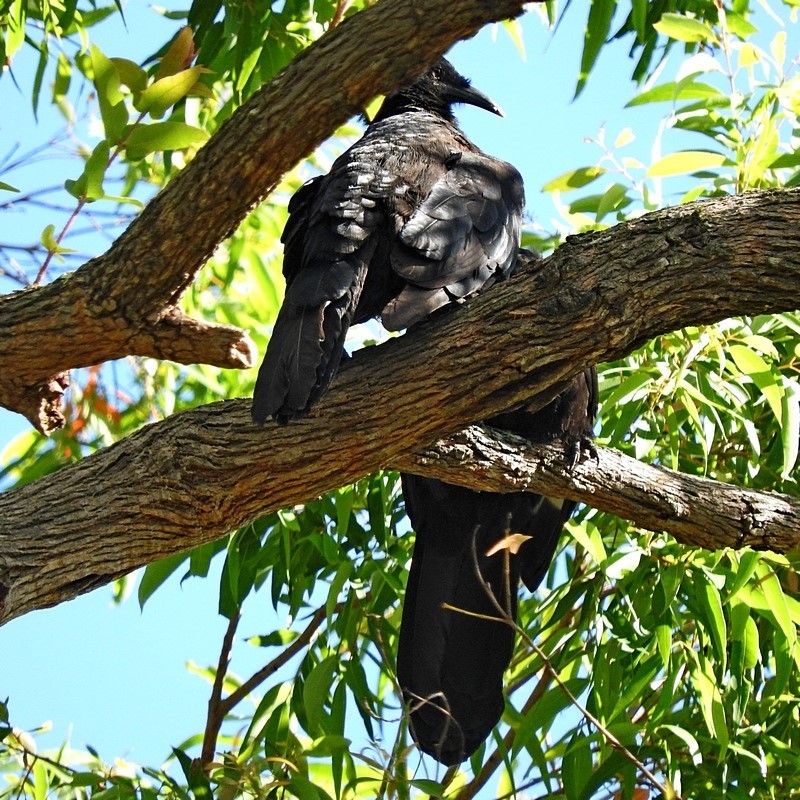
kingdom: Animalia
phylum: Chordata
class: Aves
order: Passeriformes
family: Corcoracidae
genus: Corcorax
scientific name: Corcorax melanoramphos
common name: White-winged chough
